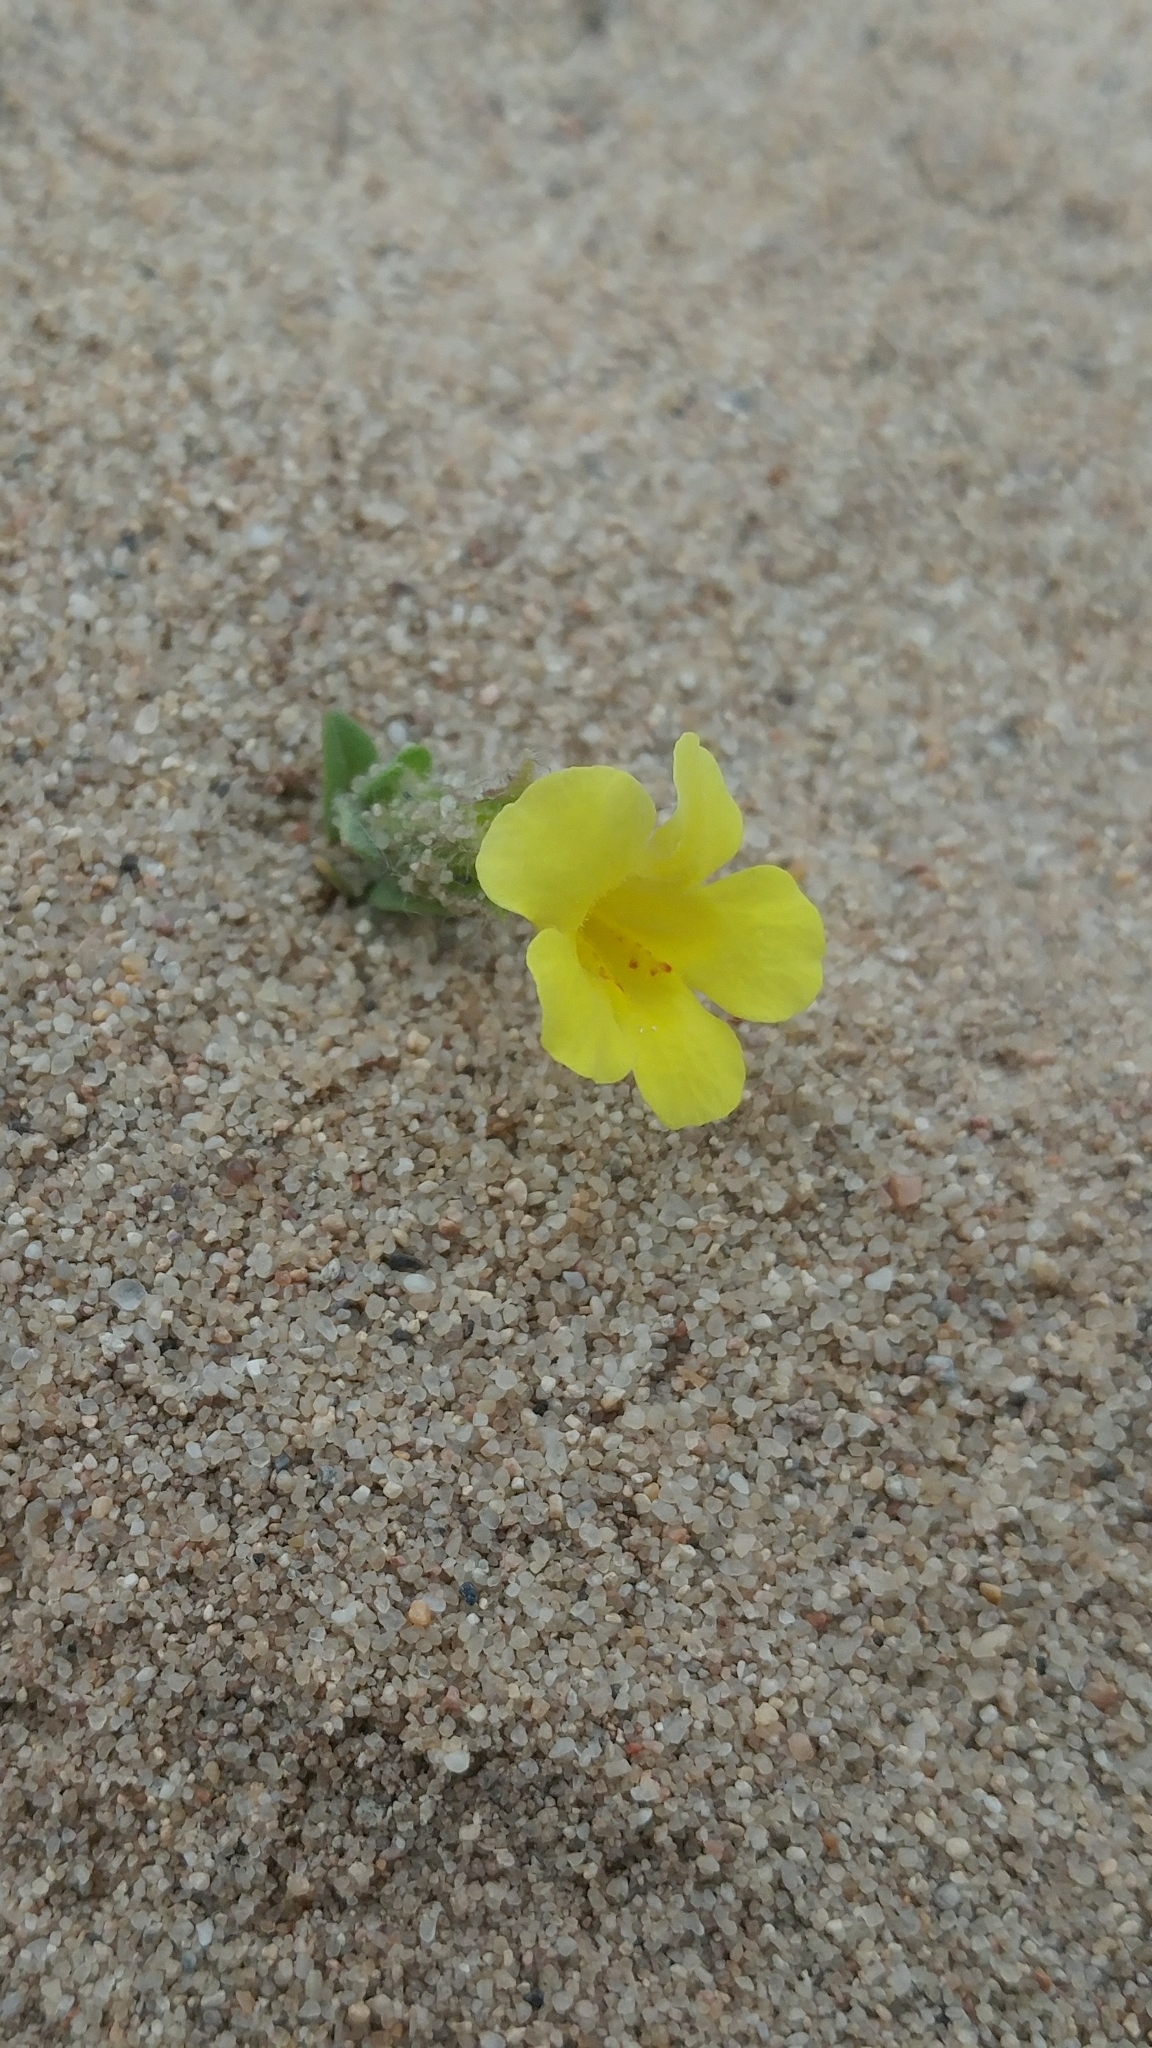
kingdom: Plantae
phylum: Tracheophyta
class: Magnoliopsida
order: Lamiales
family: Phrymaceae
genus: Diplacus
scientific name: Diplacus vandenbergensis
